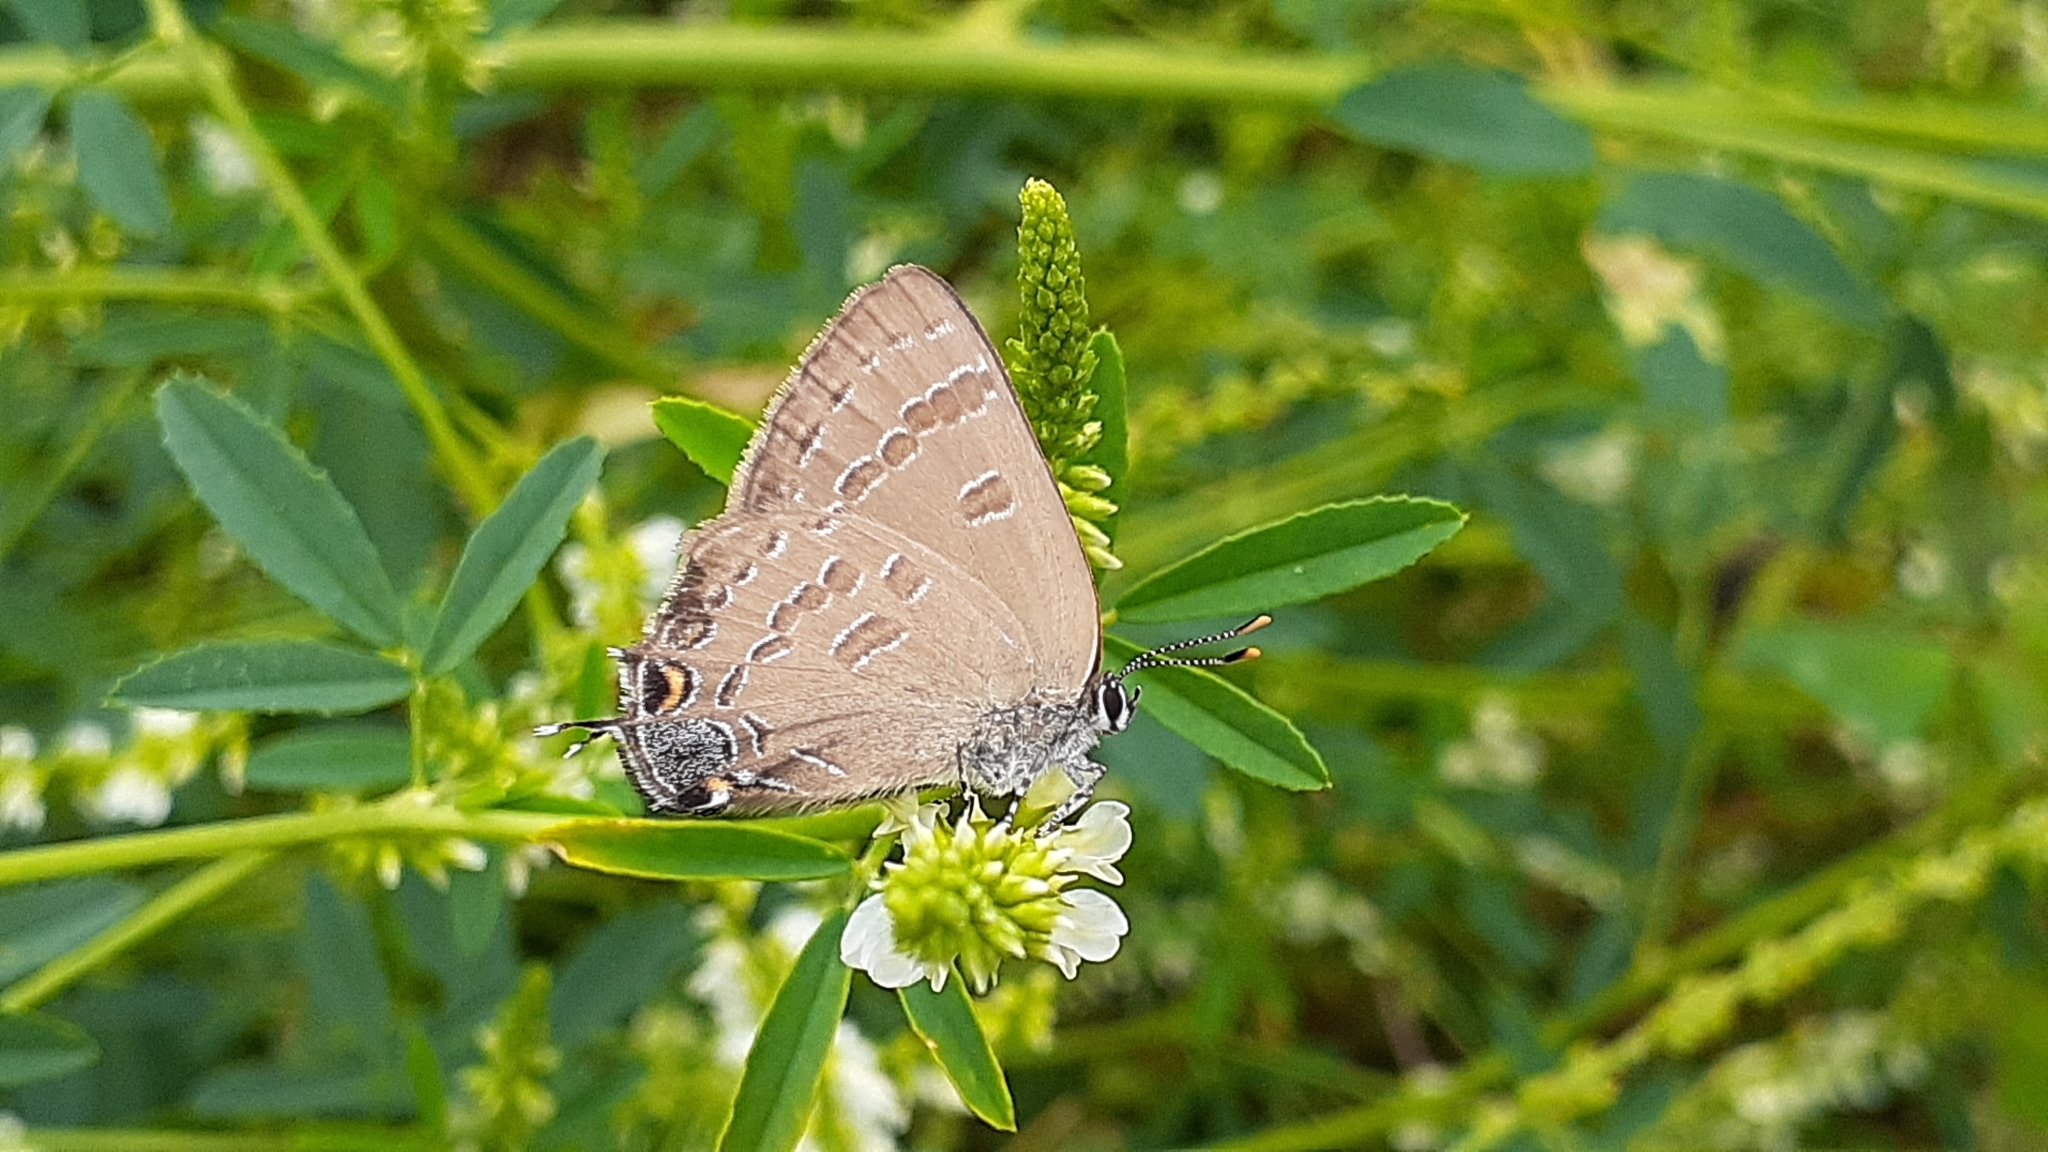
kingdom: Animalia
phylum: Arthropoda
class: Insecta
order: Lepidoptera
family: Lycaenidae
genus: Strymon
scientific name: Strymon caryaevorus
